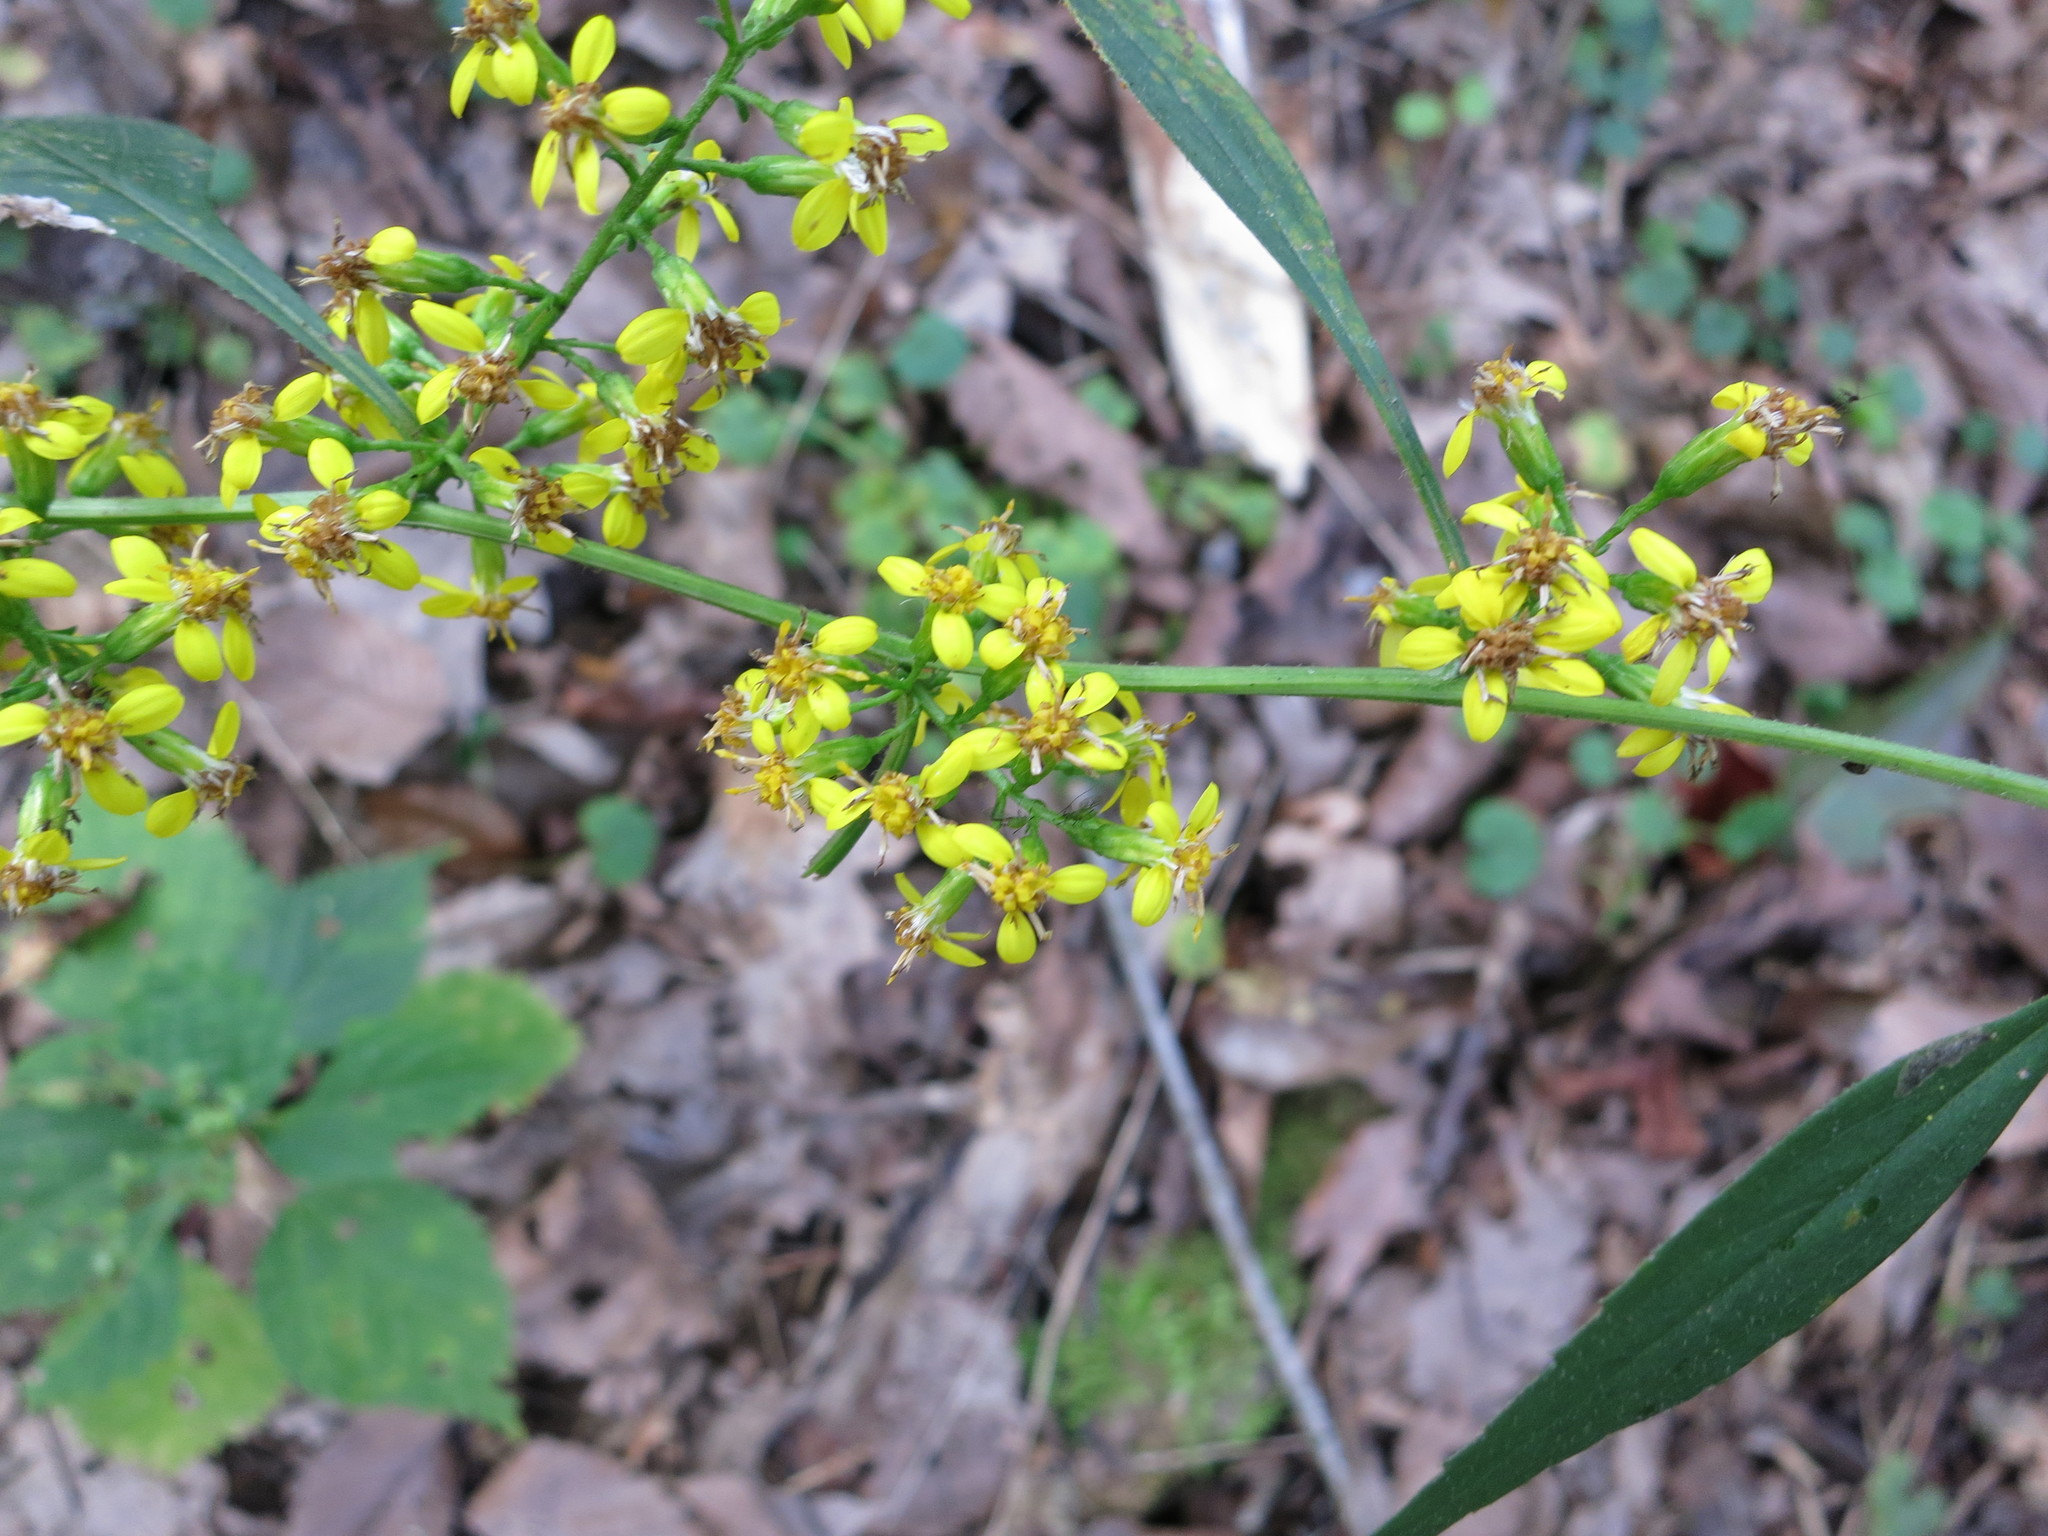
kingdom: Plantae
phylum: Tracheophyta
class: Magnoliopsida
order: Asterales
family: Asteraceae
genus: Solidago
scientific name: Solidago flexicaulis
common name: Zig-zag goldenrod
